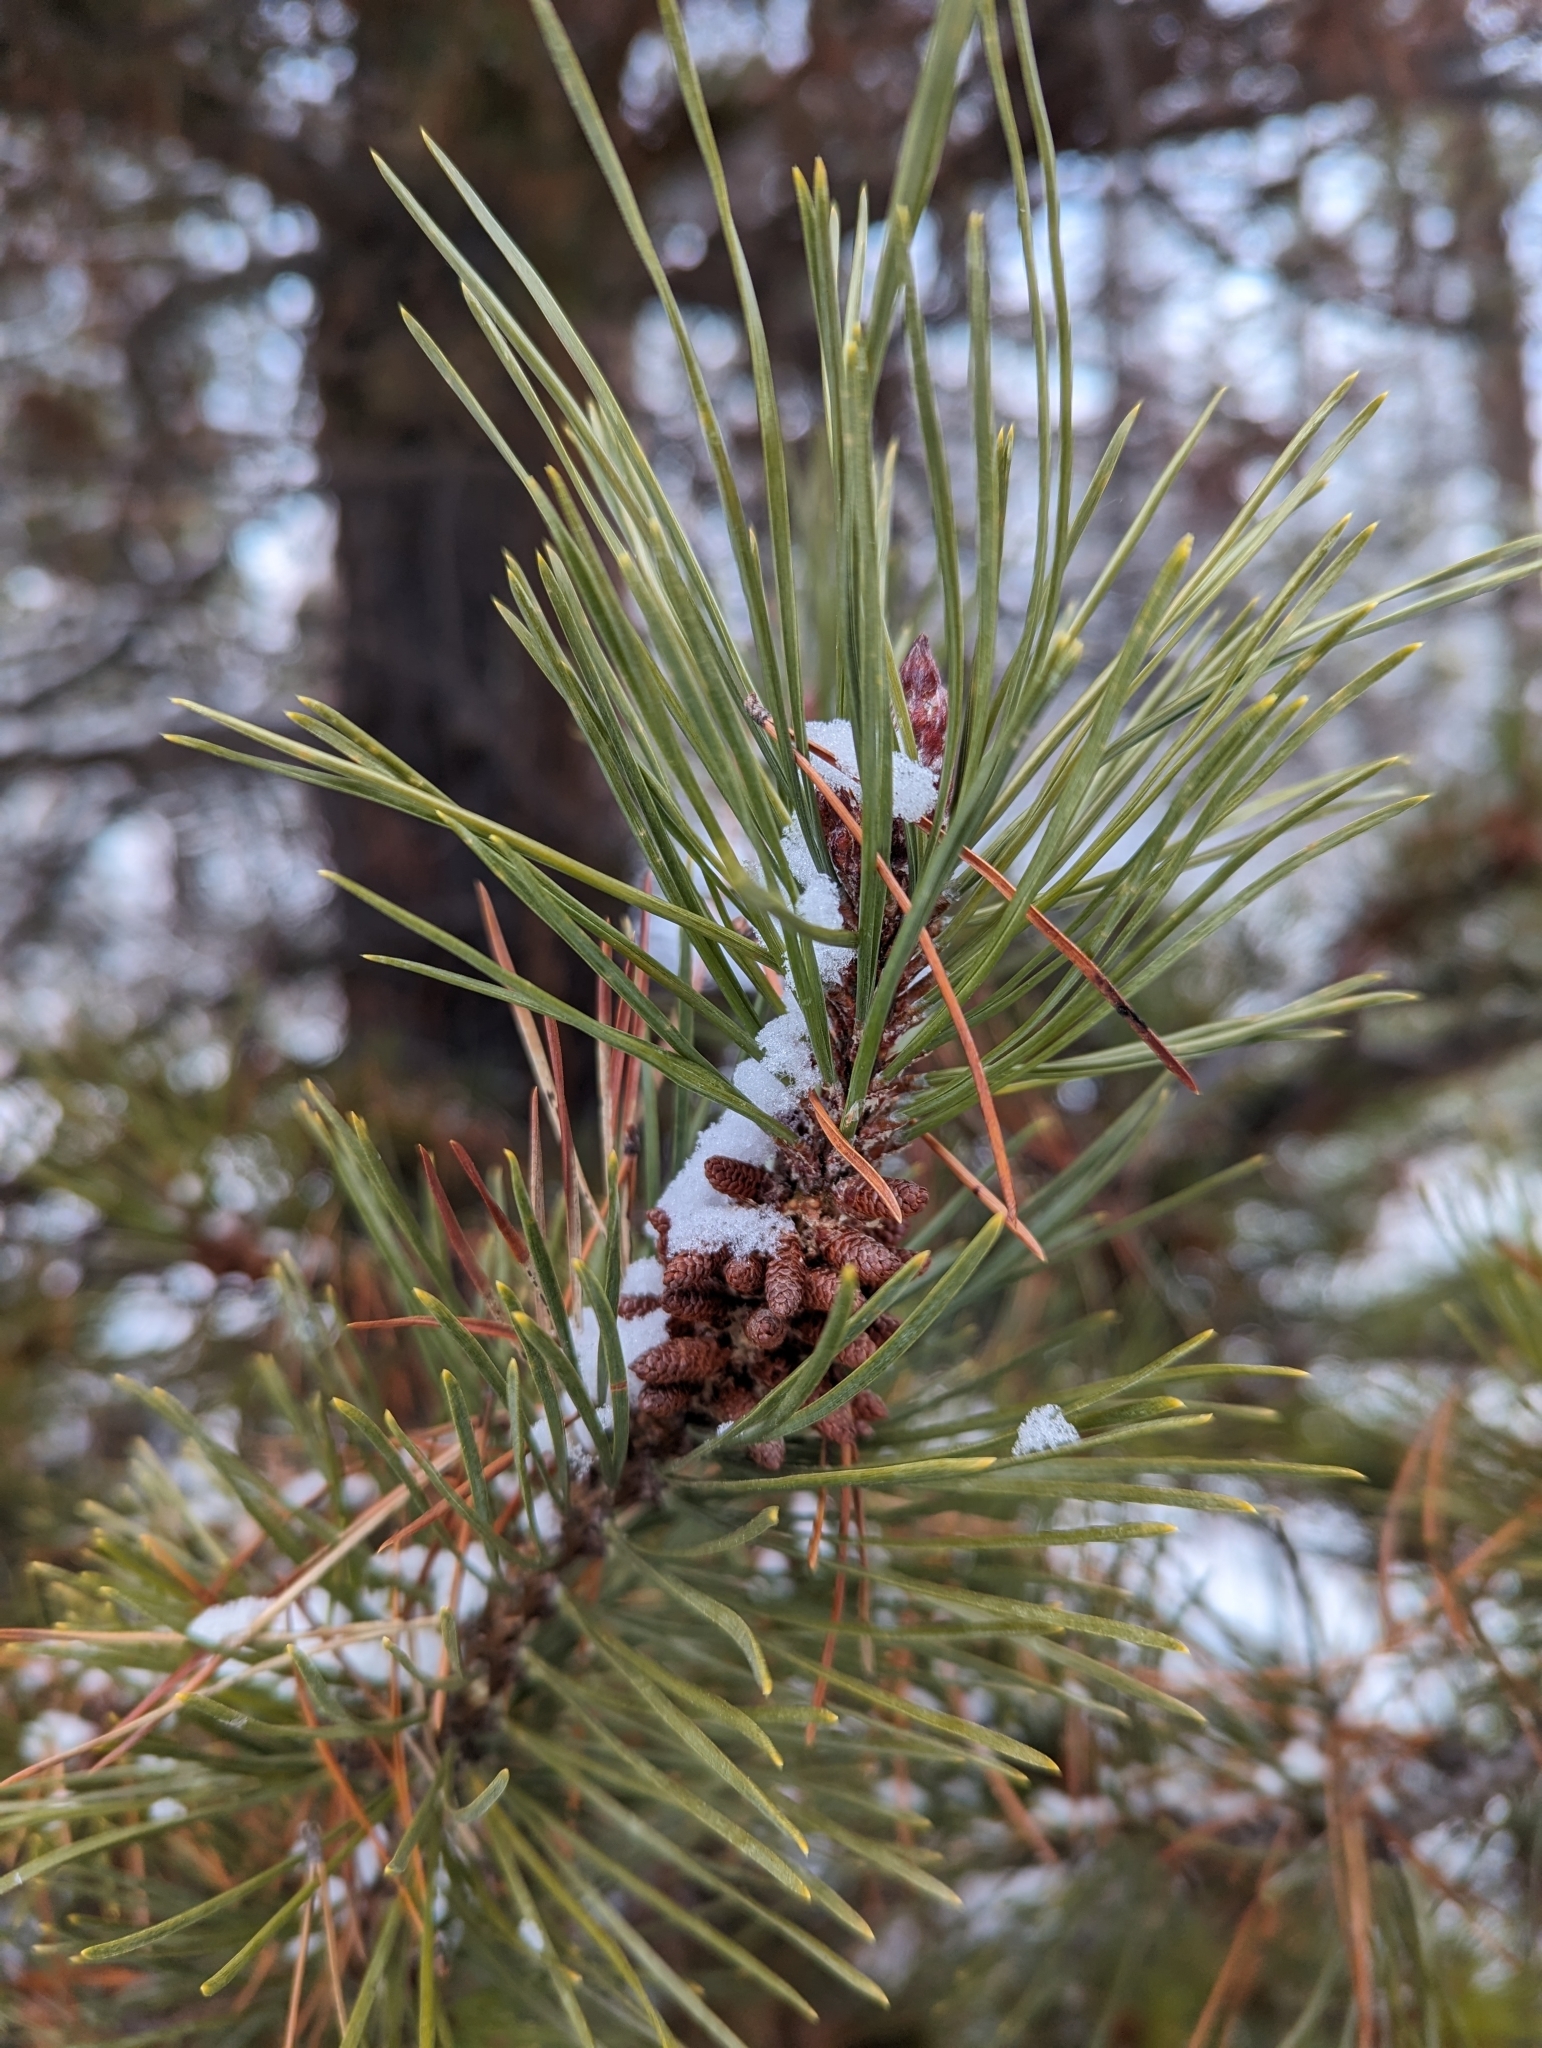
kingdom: Plantae
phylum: Tracheophyta
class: Pinopsida
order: Pinales
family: Pinaceae
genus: Pinus
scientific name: Pinus contorta
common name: Lodgepole pine
